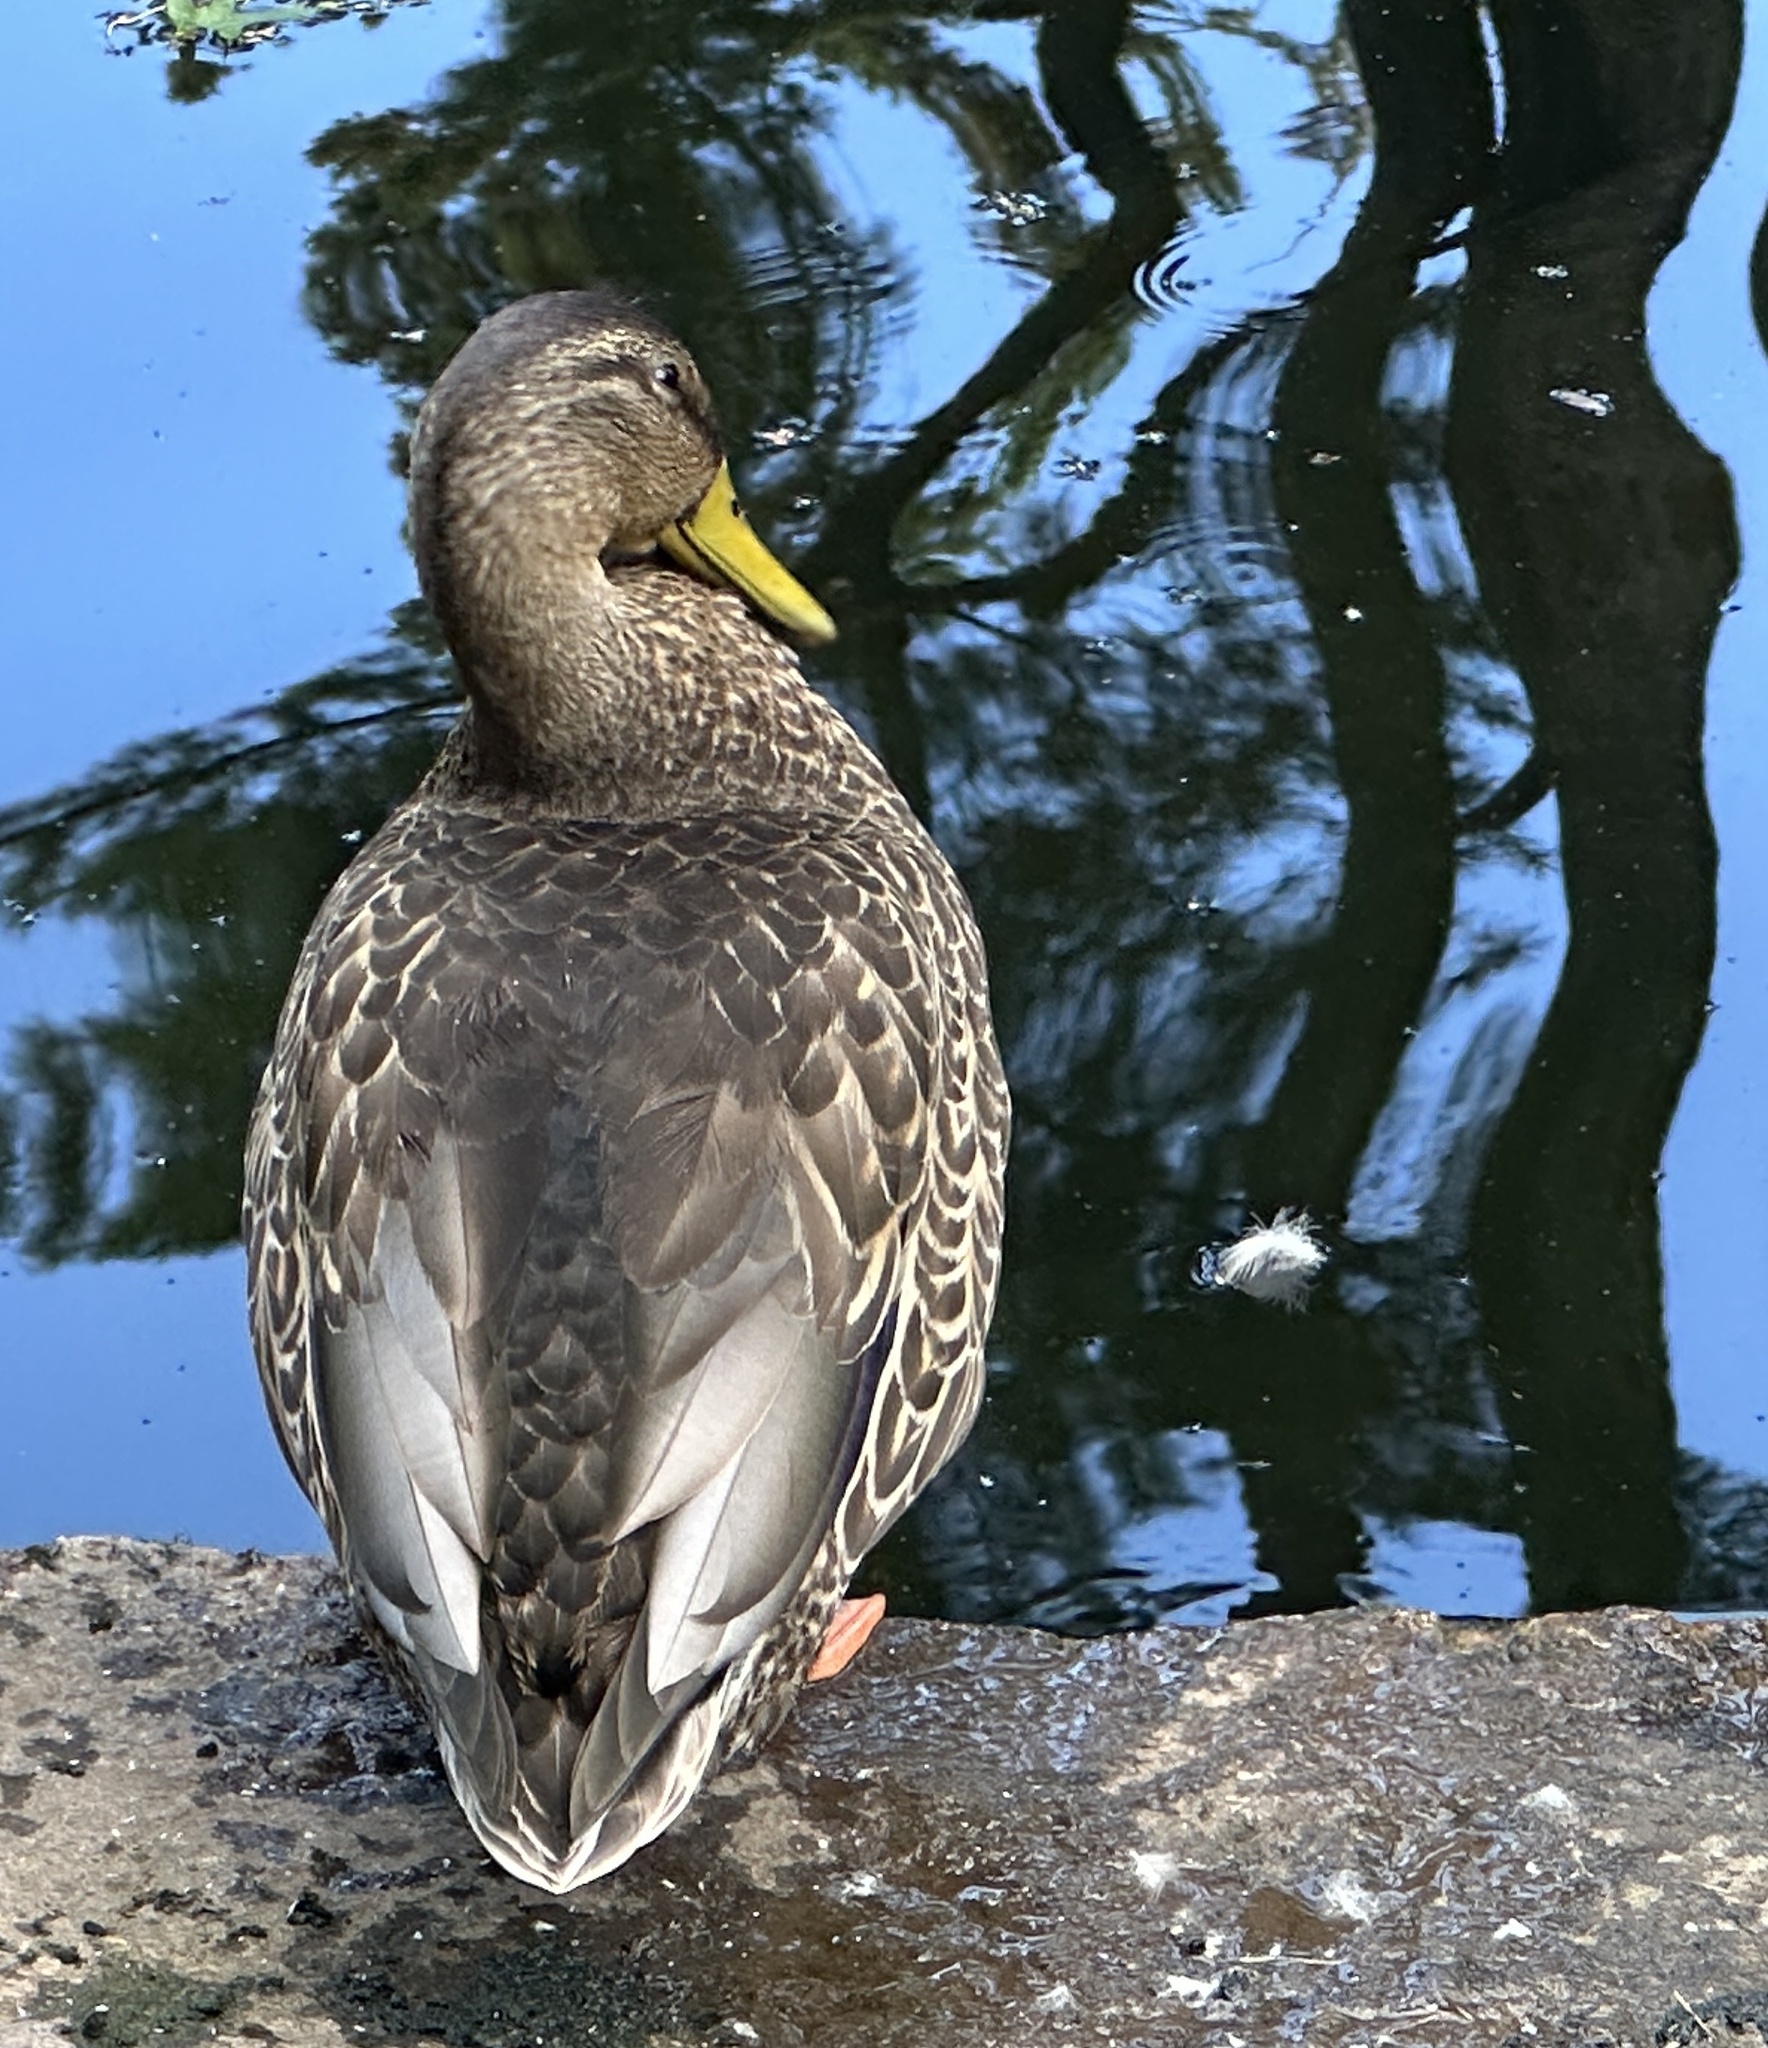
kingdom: Animalia
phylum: Chordata
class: Aves
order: Anseriformes
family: Anatidae
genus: Anas
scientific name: Anas platyrhynchos
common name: Mallard
